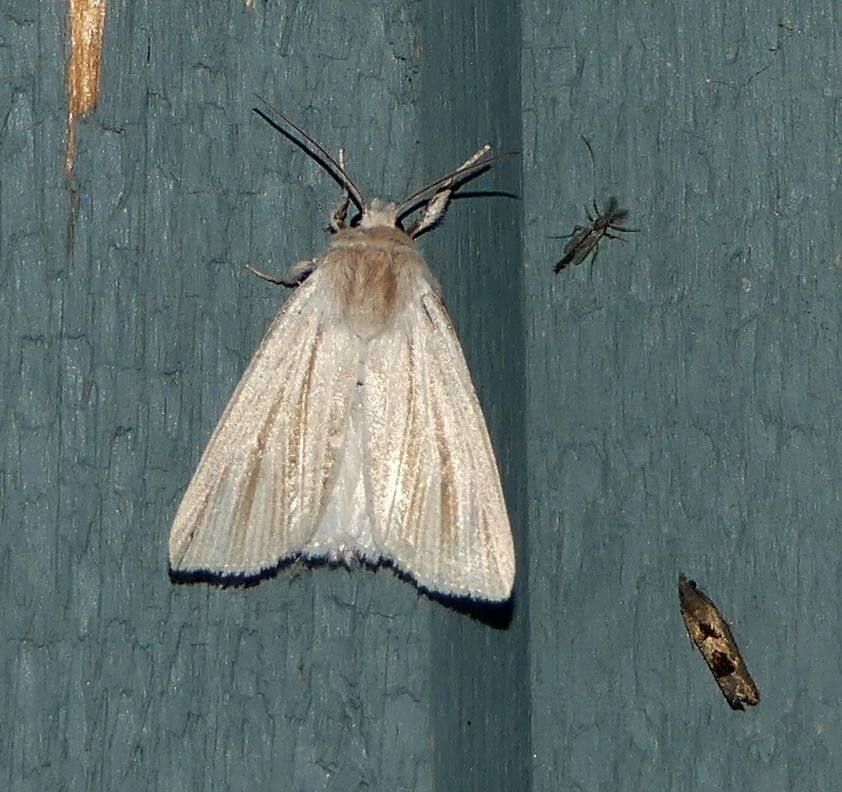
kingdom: Animalia
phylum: Arthropoda
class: Insecta
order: Lepidoptera
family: Noctuidae
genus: Acronicta
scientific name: Acronicta insularis
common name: Henry's marsh moth
